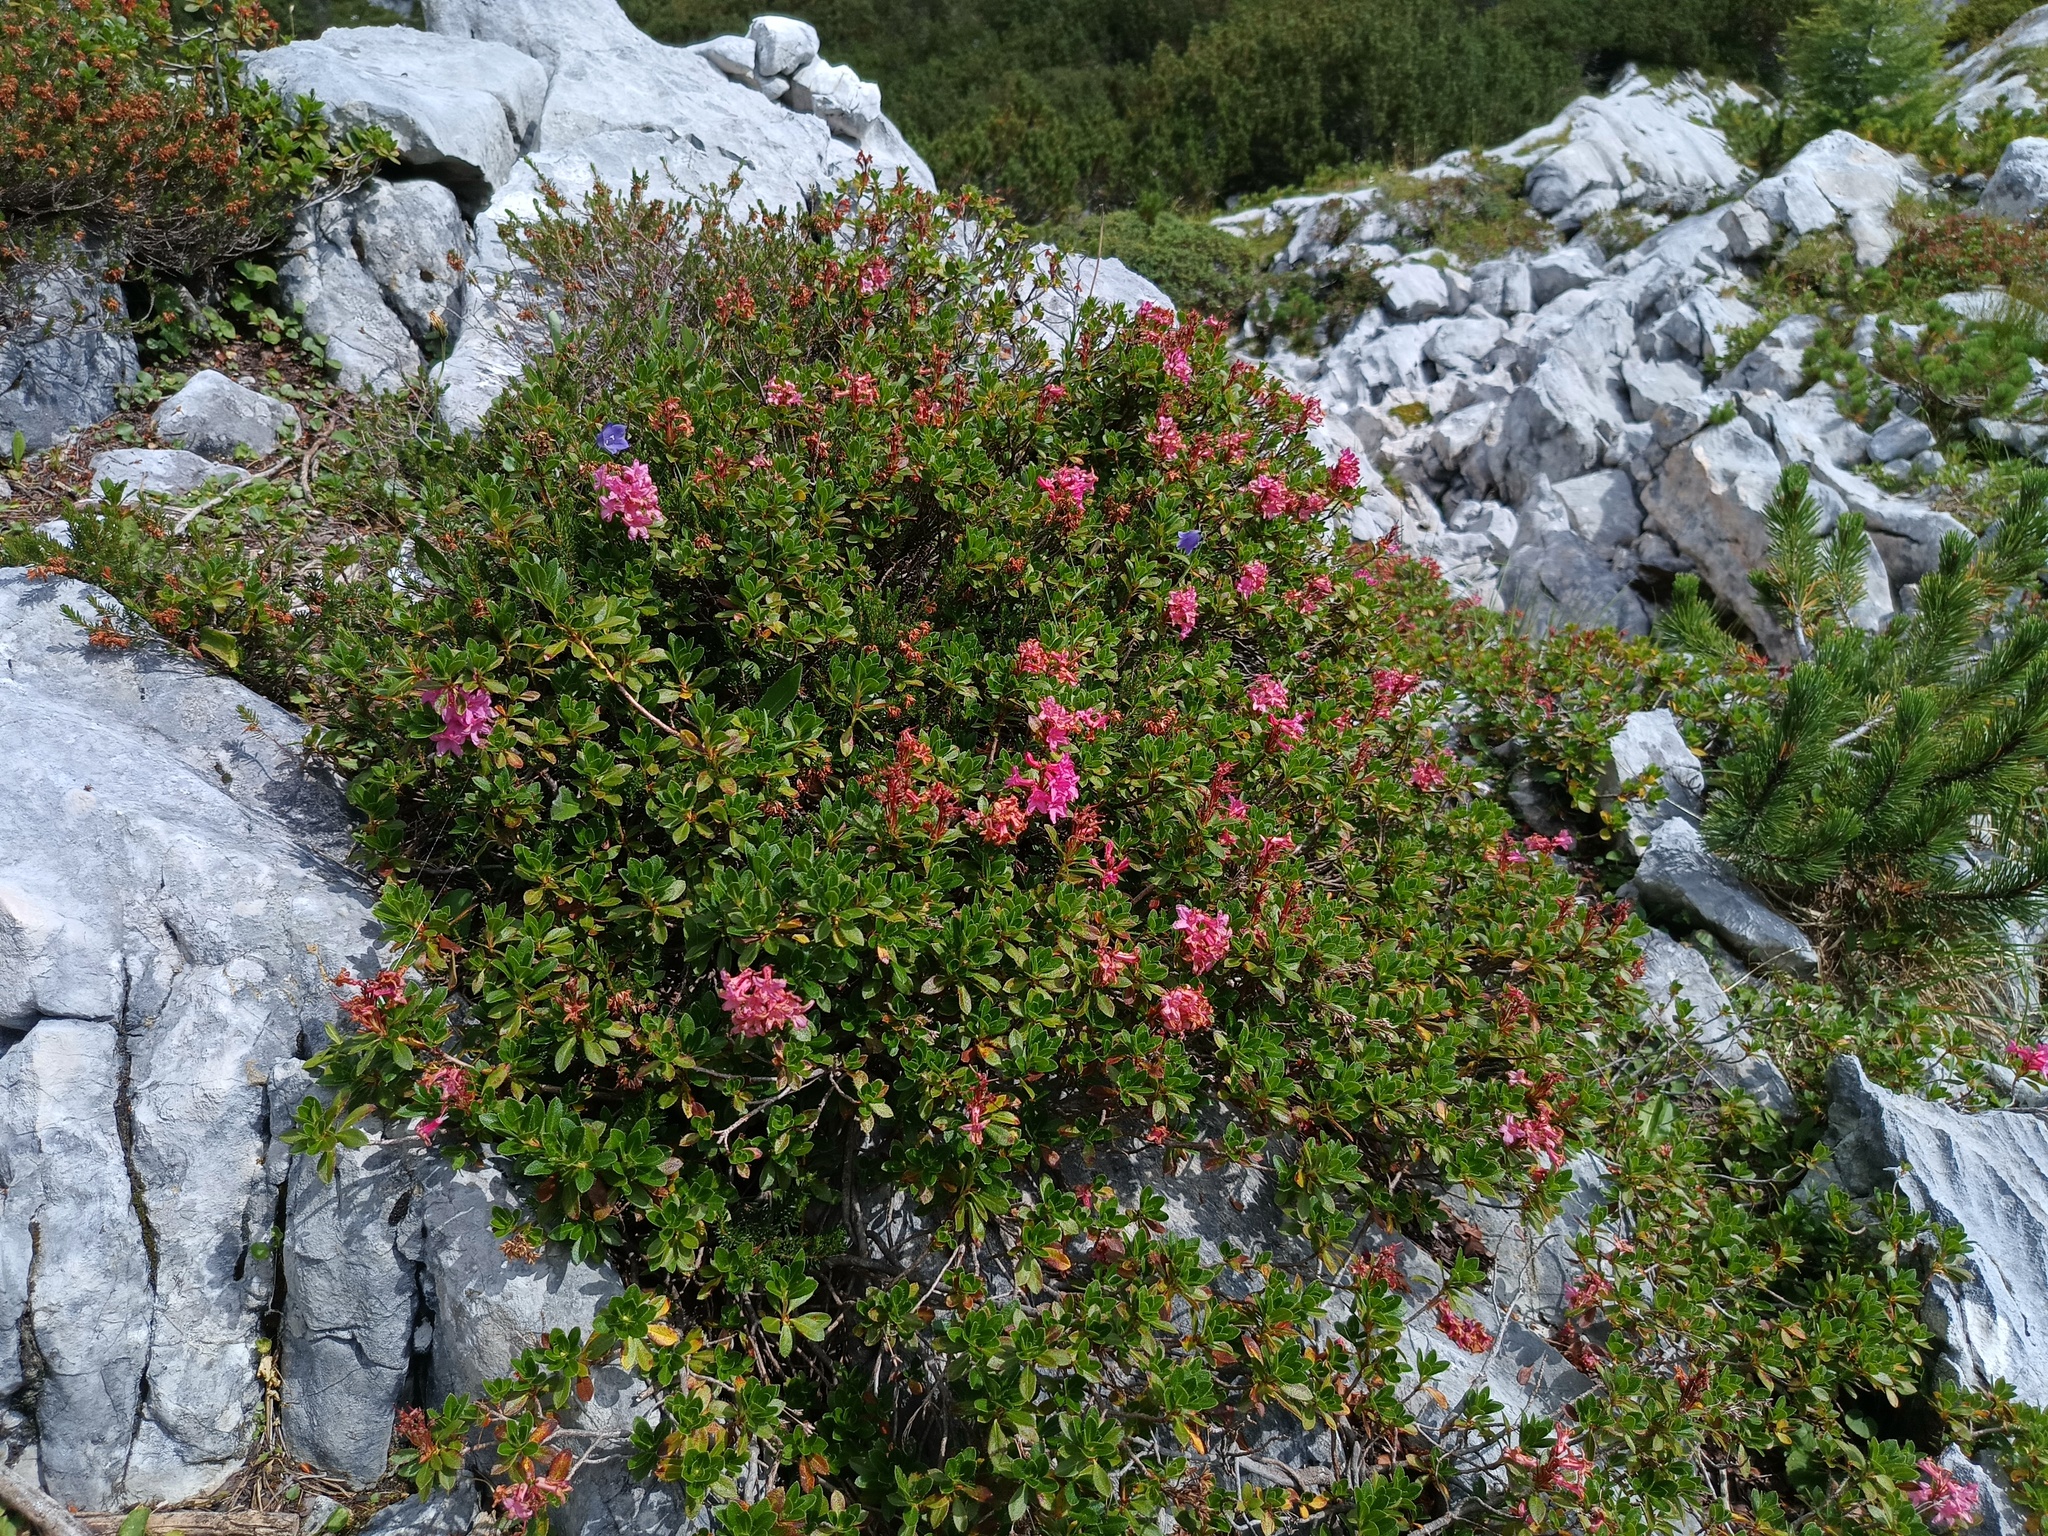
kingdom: Plantae
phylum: Tracheophyta
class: Magnoliopsida
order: Ericales
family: Ericaceae
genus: Rhododendron
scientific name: Rhododendron hirsutum
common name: Hairy alpenrose
